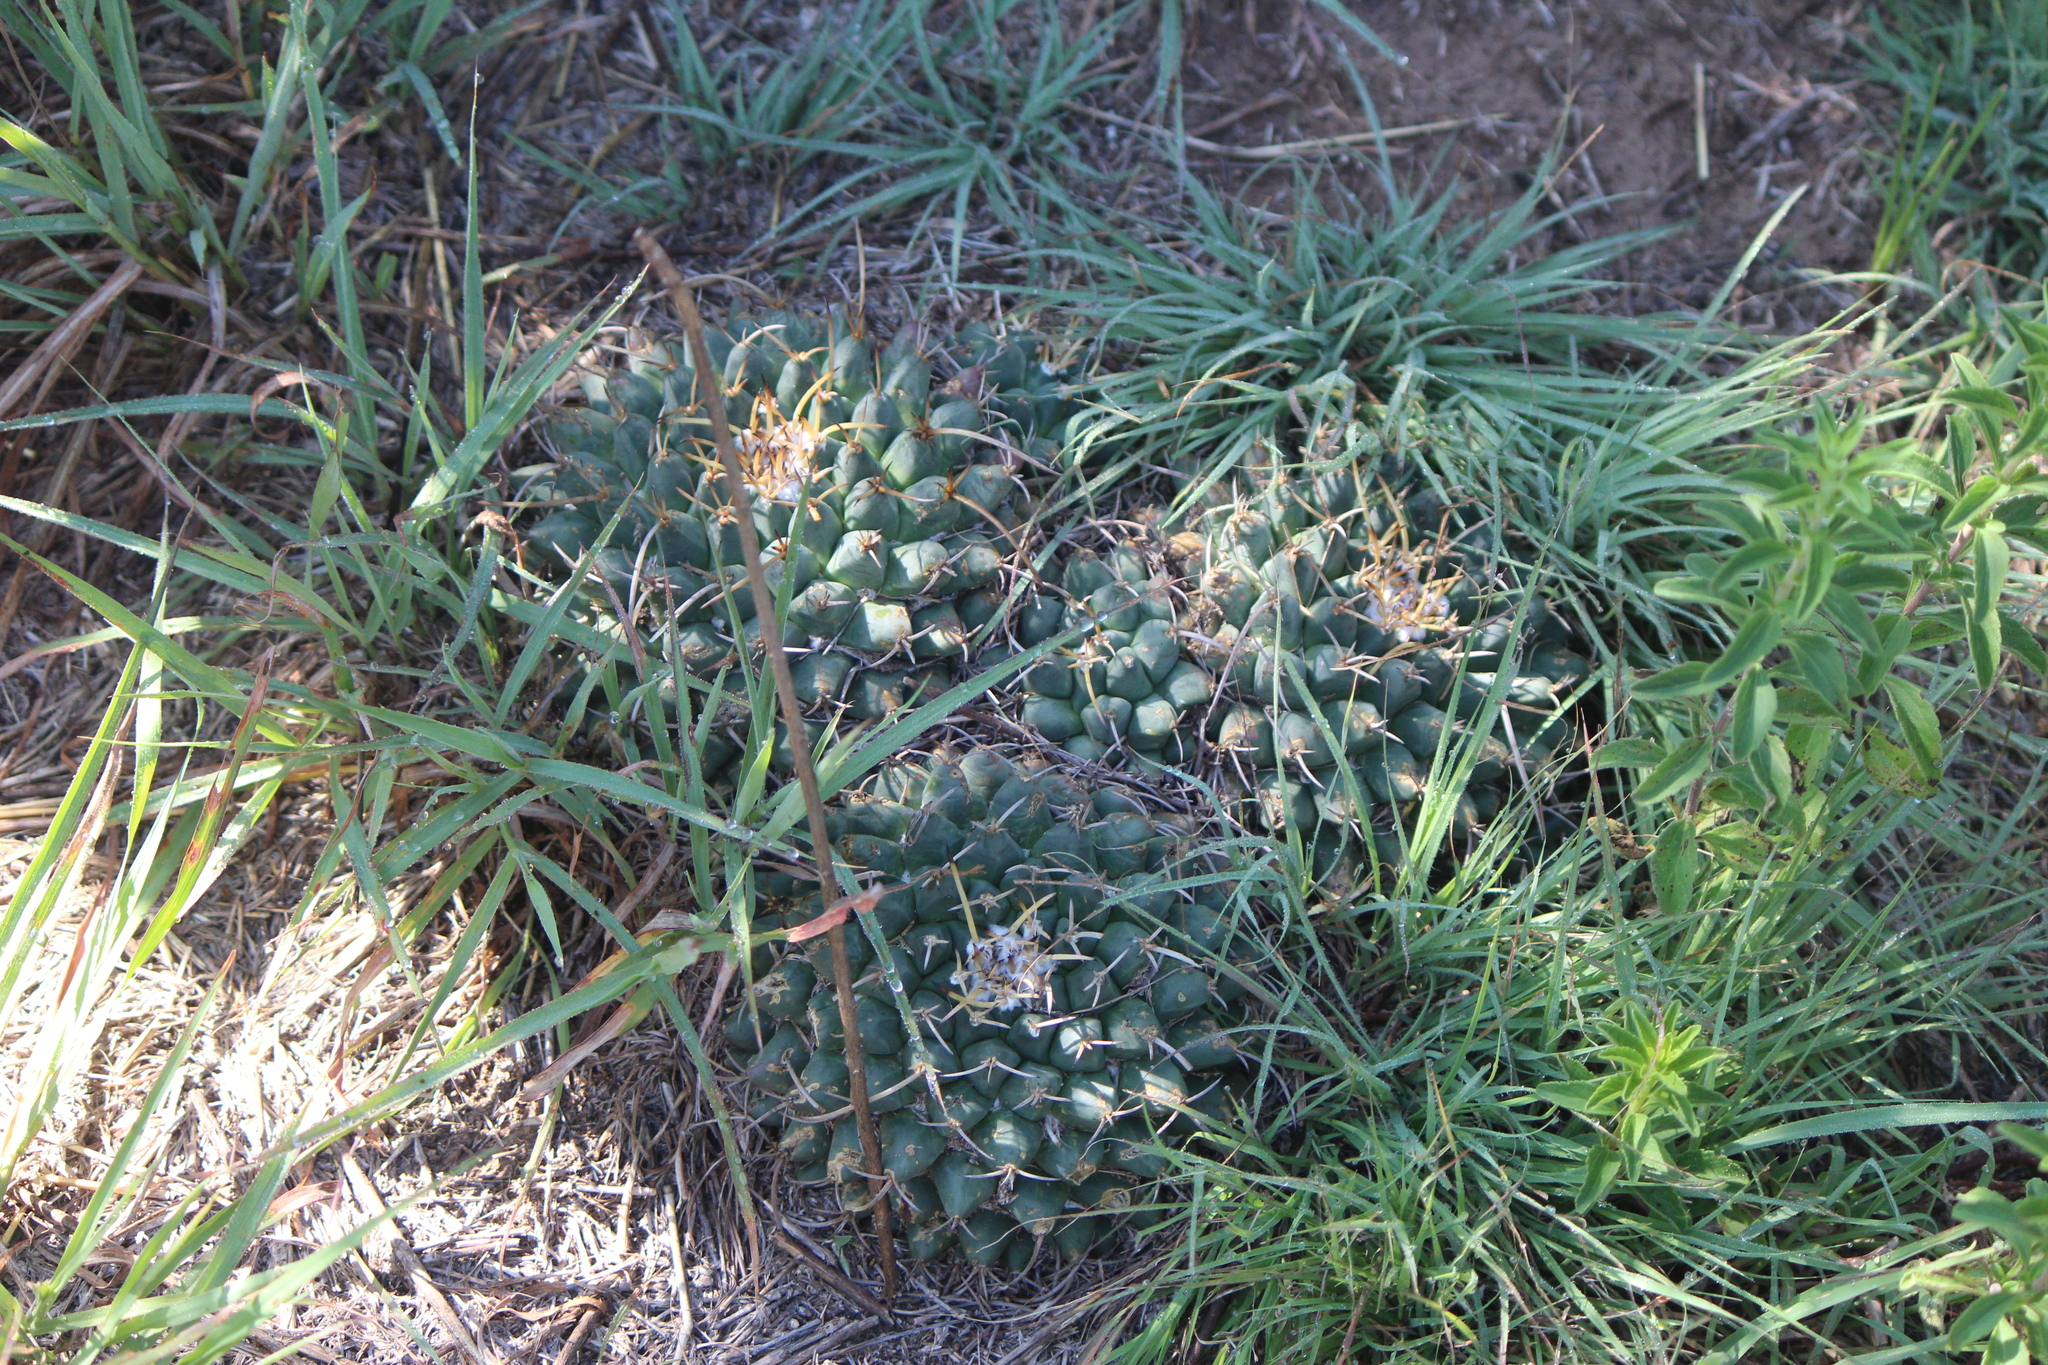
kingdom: Plantae
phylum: Tracheophyta
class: Magnoliopsida
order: Caryophyllales
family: Cactaceae
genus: Mammillaria
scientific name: Mammillaria magnimamma
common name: Mexican pincushion
